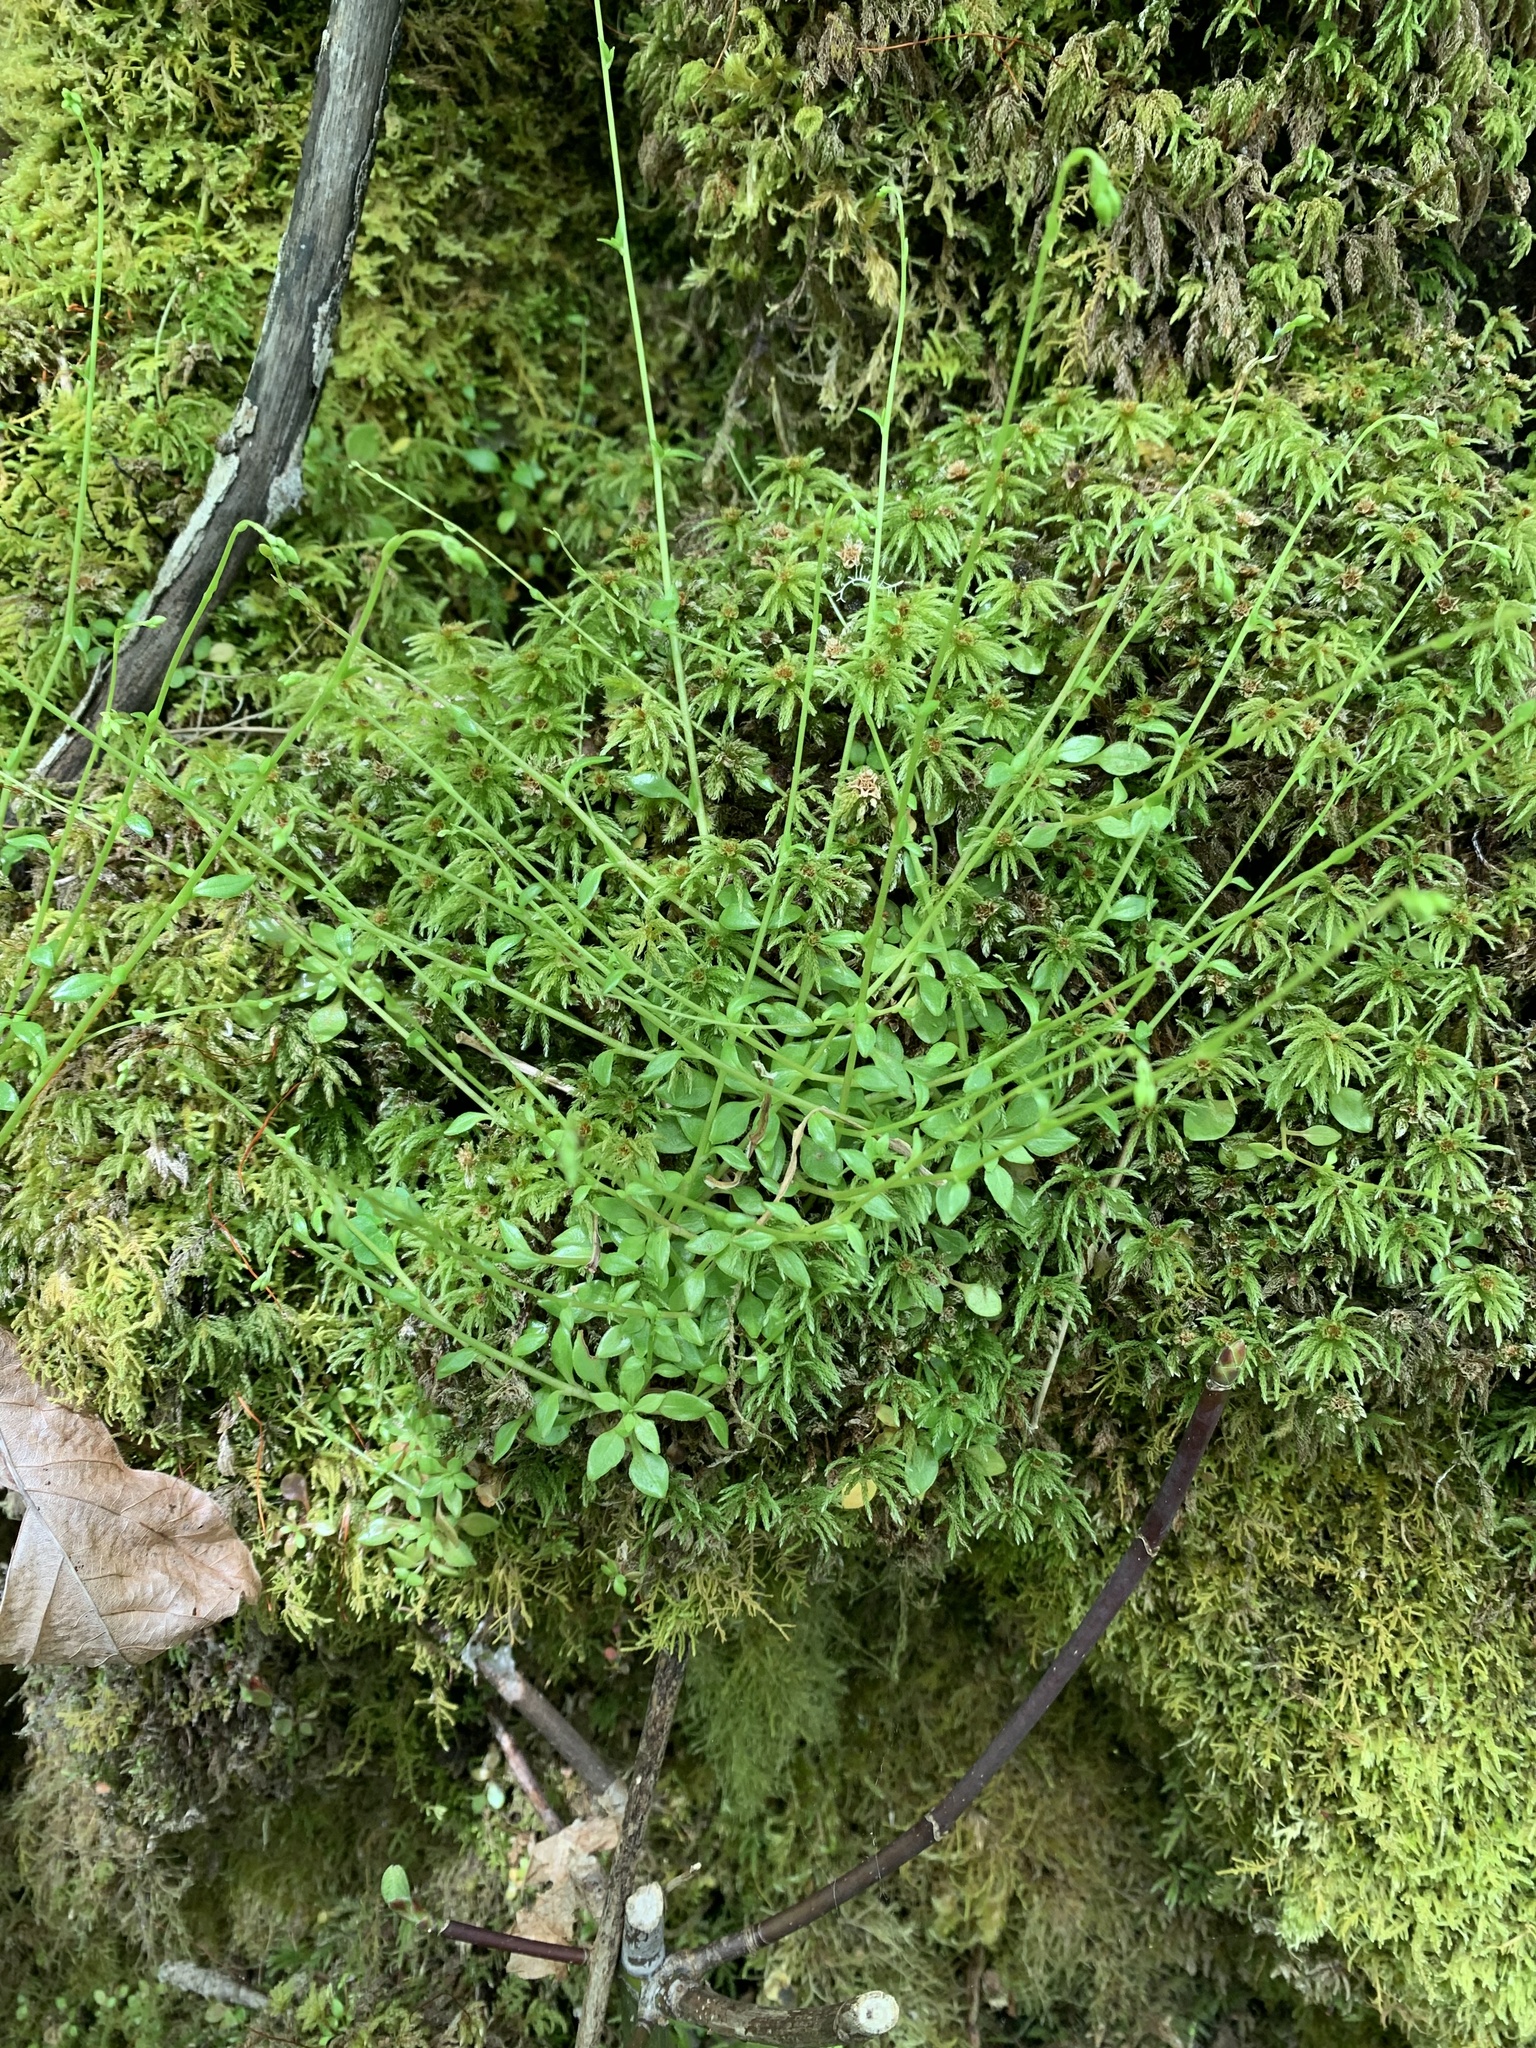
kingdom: Plantae
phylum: Tracheophyta
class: Magnoliopsida
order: Caryophyllales
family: Montiaceae
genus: Montia
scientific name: Montia parvifolia
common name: Small-leaved blinks
